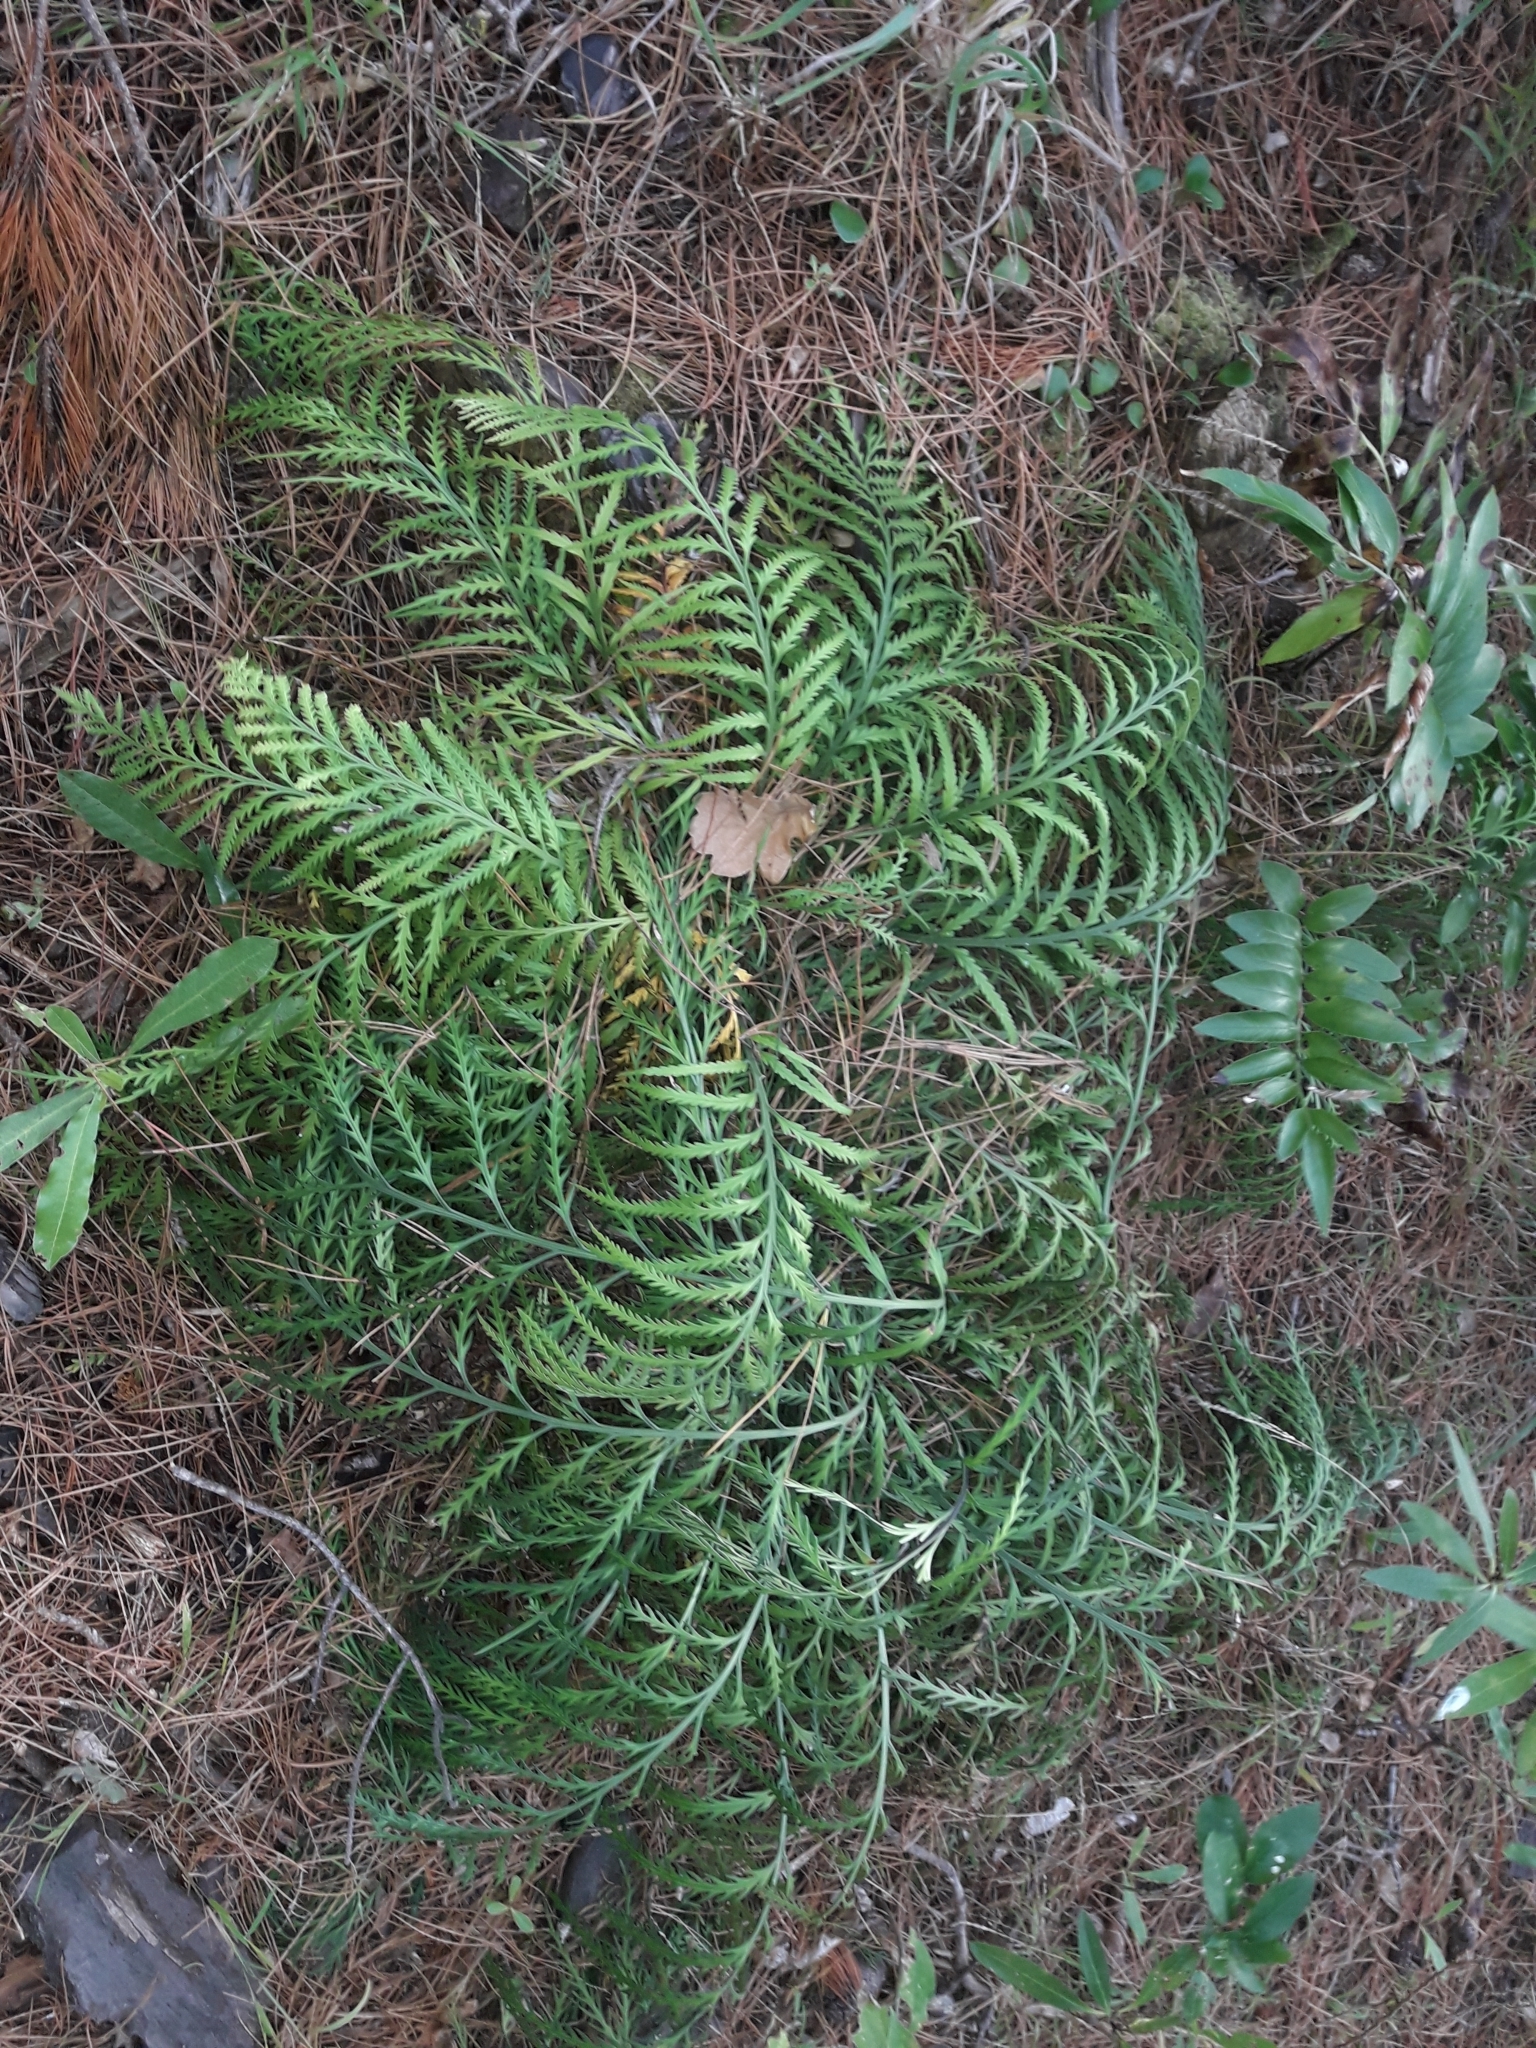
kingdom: Plantae
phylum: Tracheophyta
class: Polypodiopsida
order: Polypodiales
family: Aspleniaceae
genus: Asplenium
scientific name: Asplenium flaccidum
